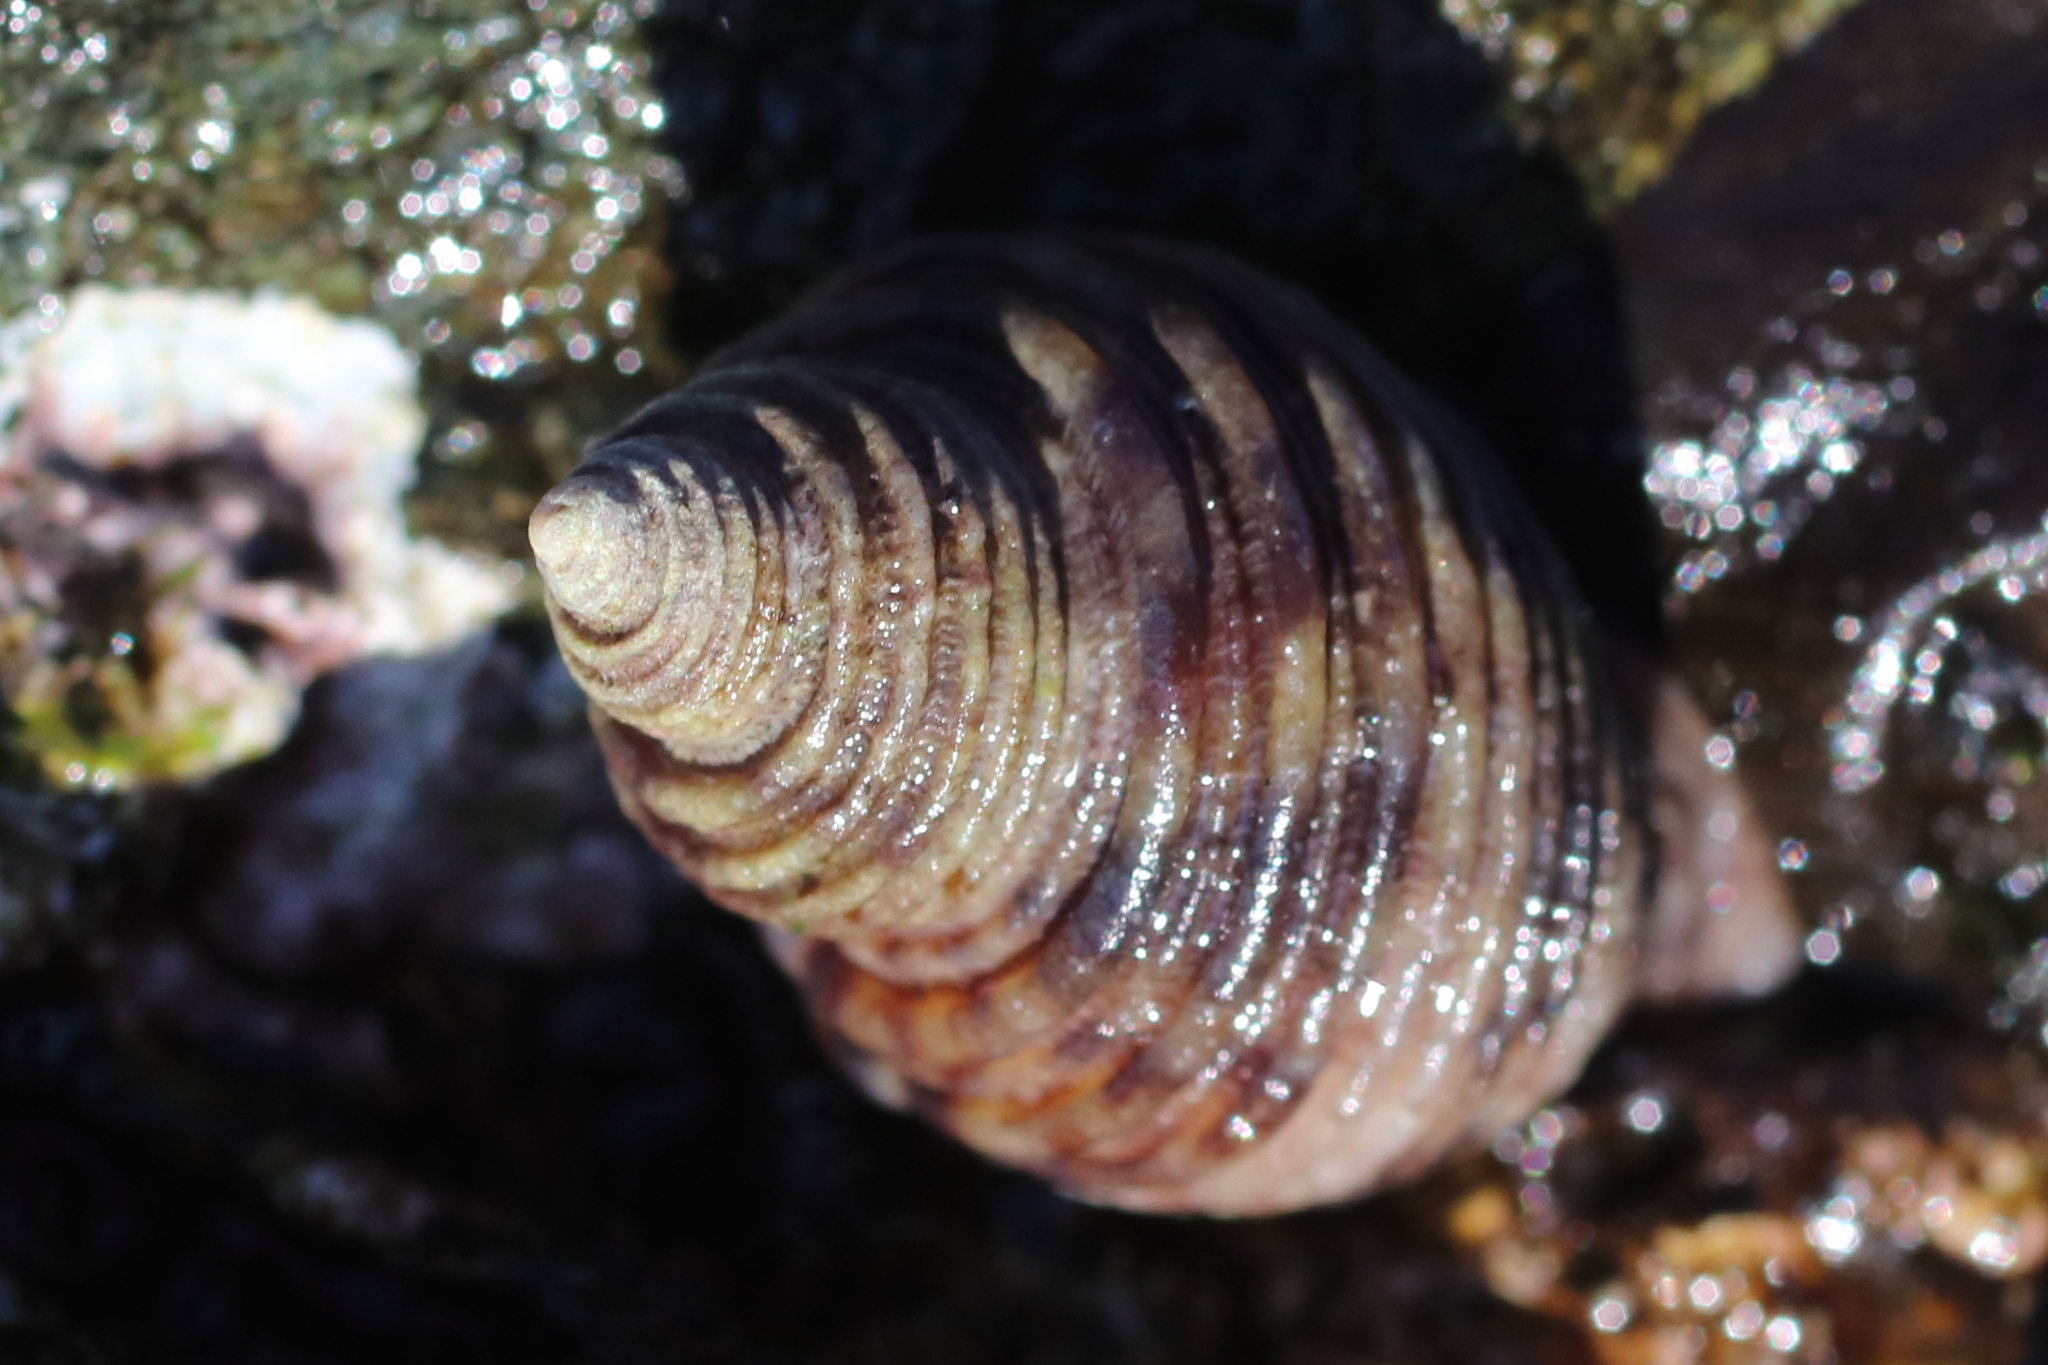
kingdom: Animalia
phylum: Mollusca
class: Gastropoda
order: Neogastropoda
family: Muricidae
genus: Nucella
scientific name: Nucella canaliculata
